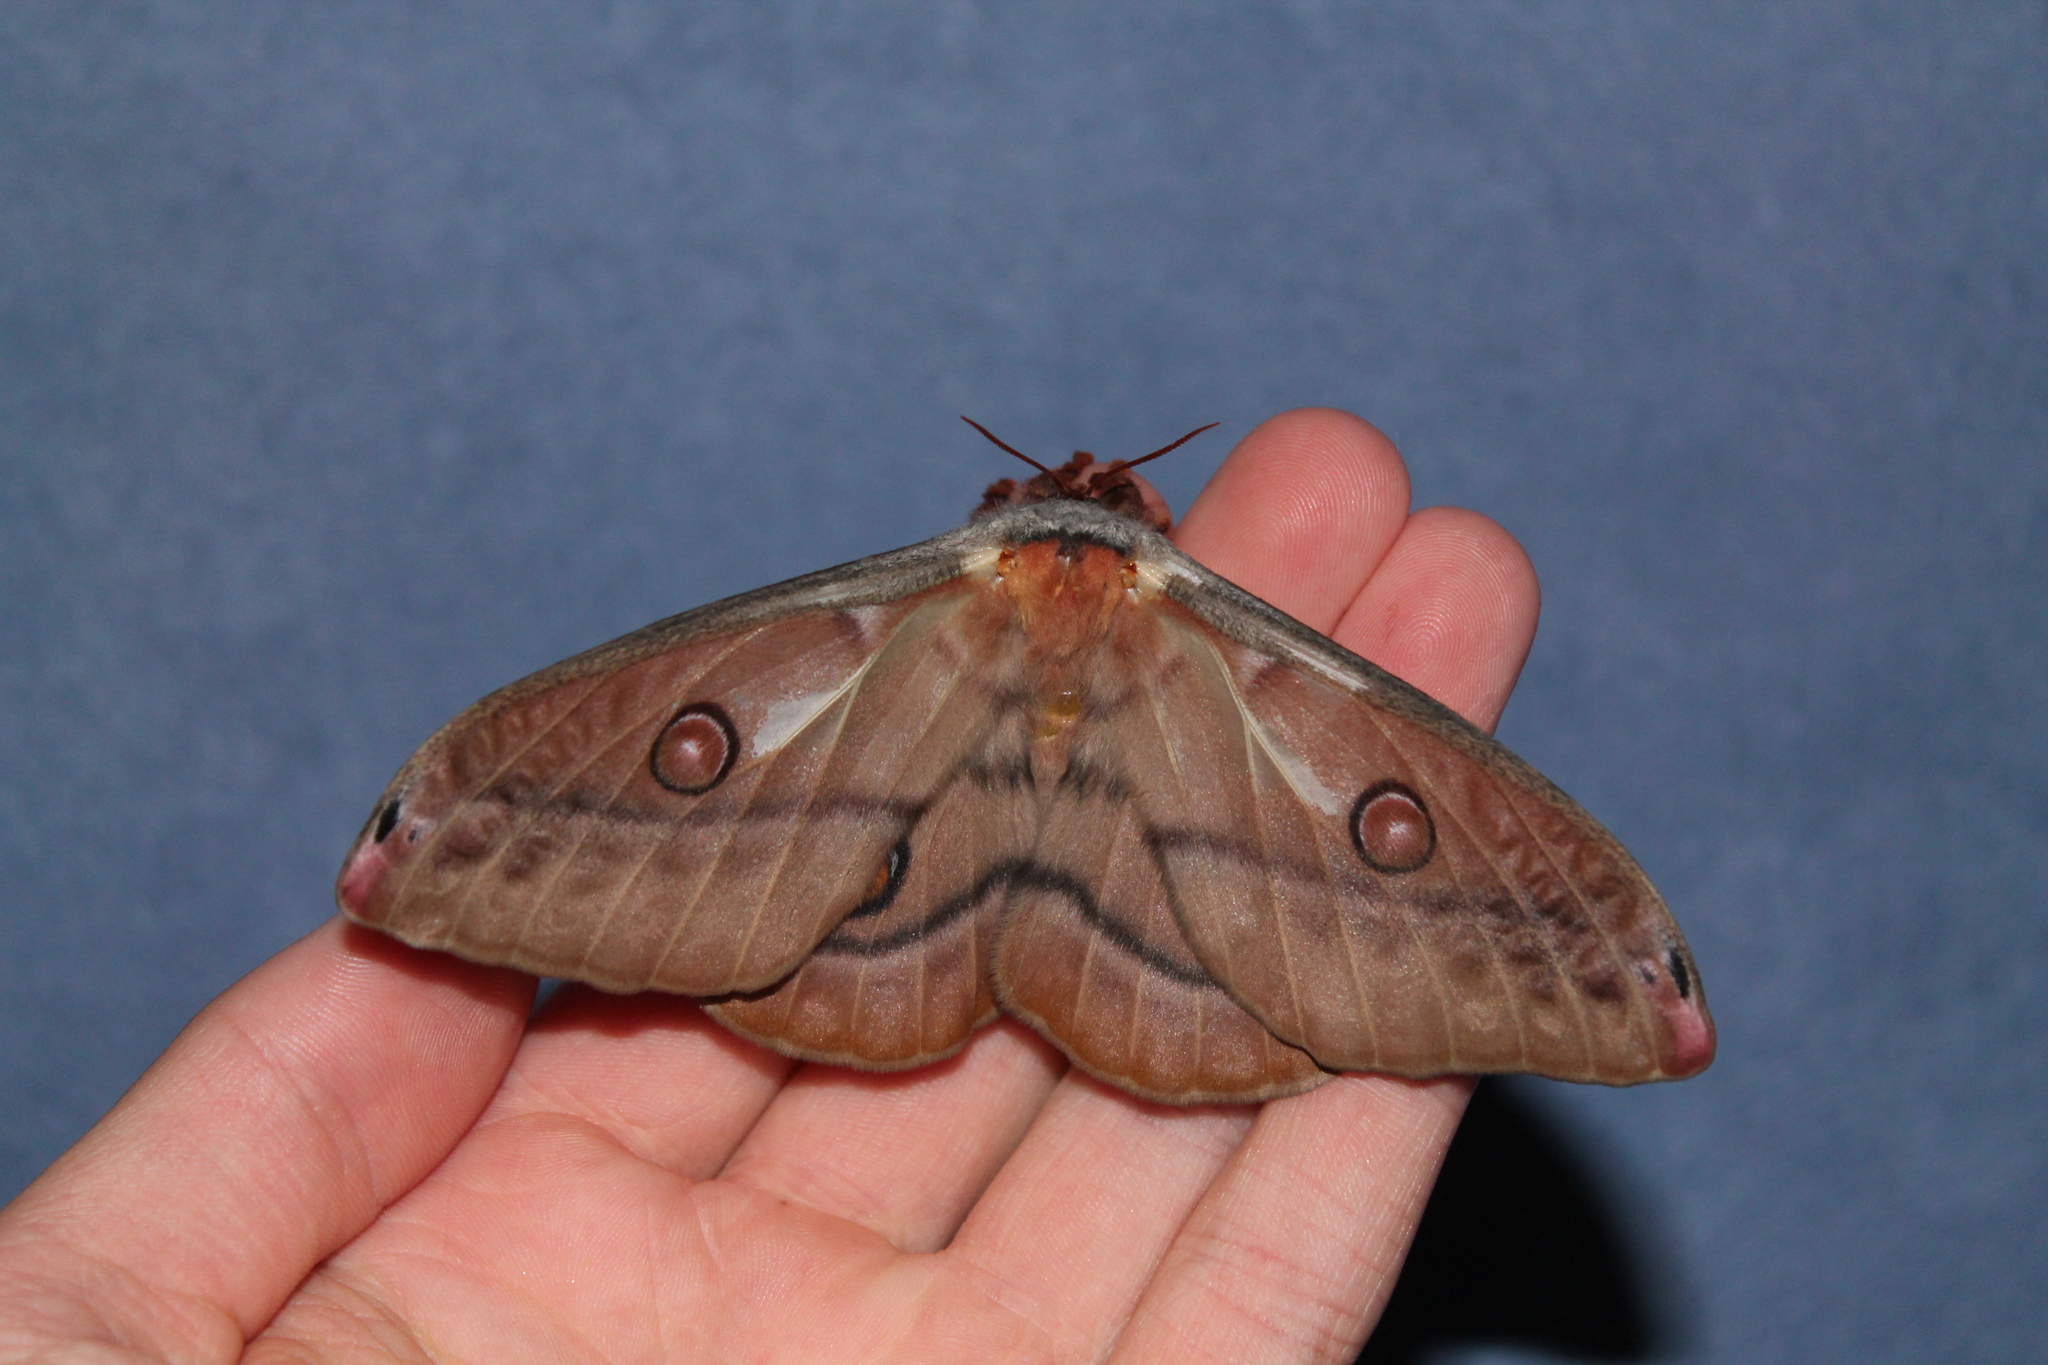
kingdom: Animalia
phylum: Arthropoda
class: Insecta
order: Lepidoptera
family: Saturniidae
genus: Opodiphthera
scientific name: Opodiphthera
